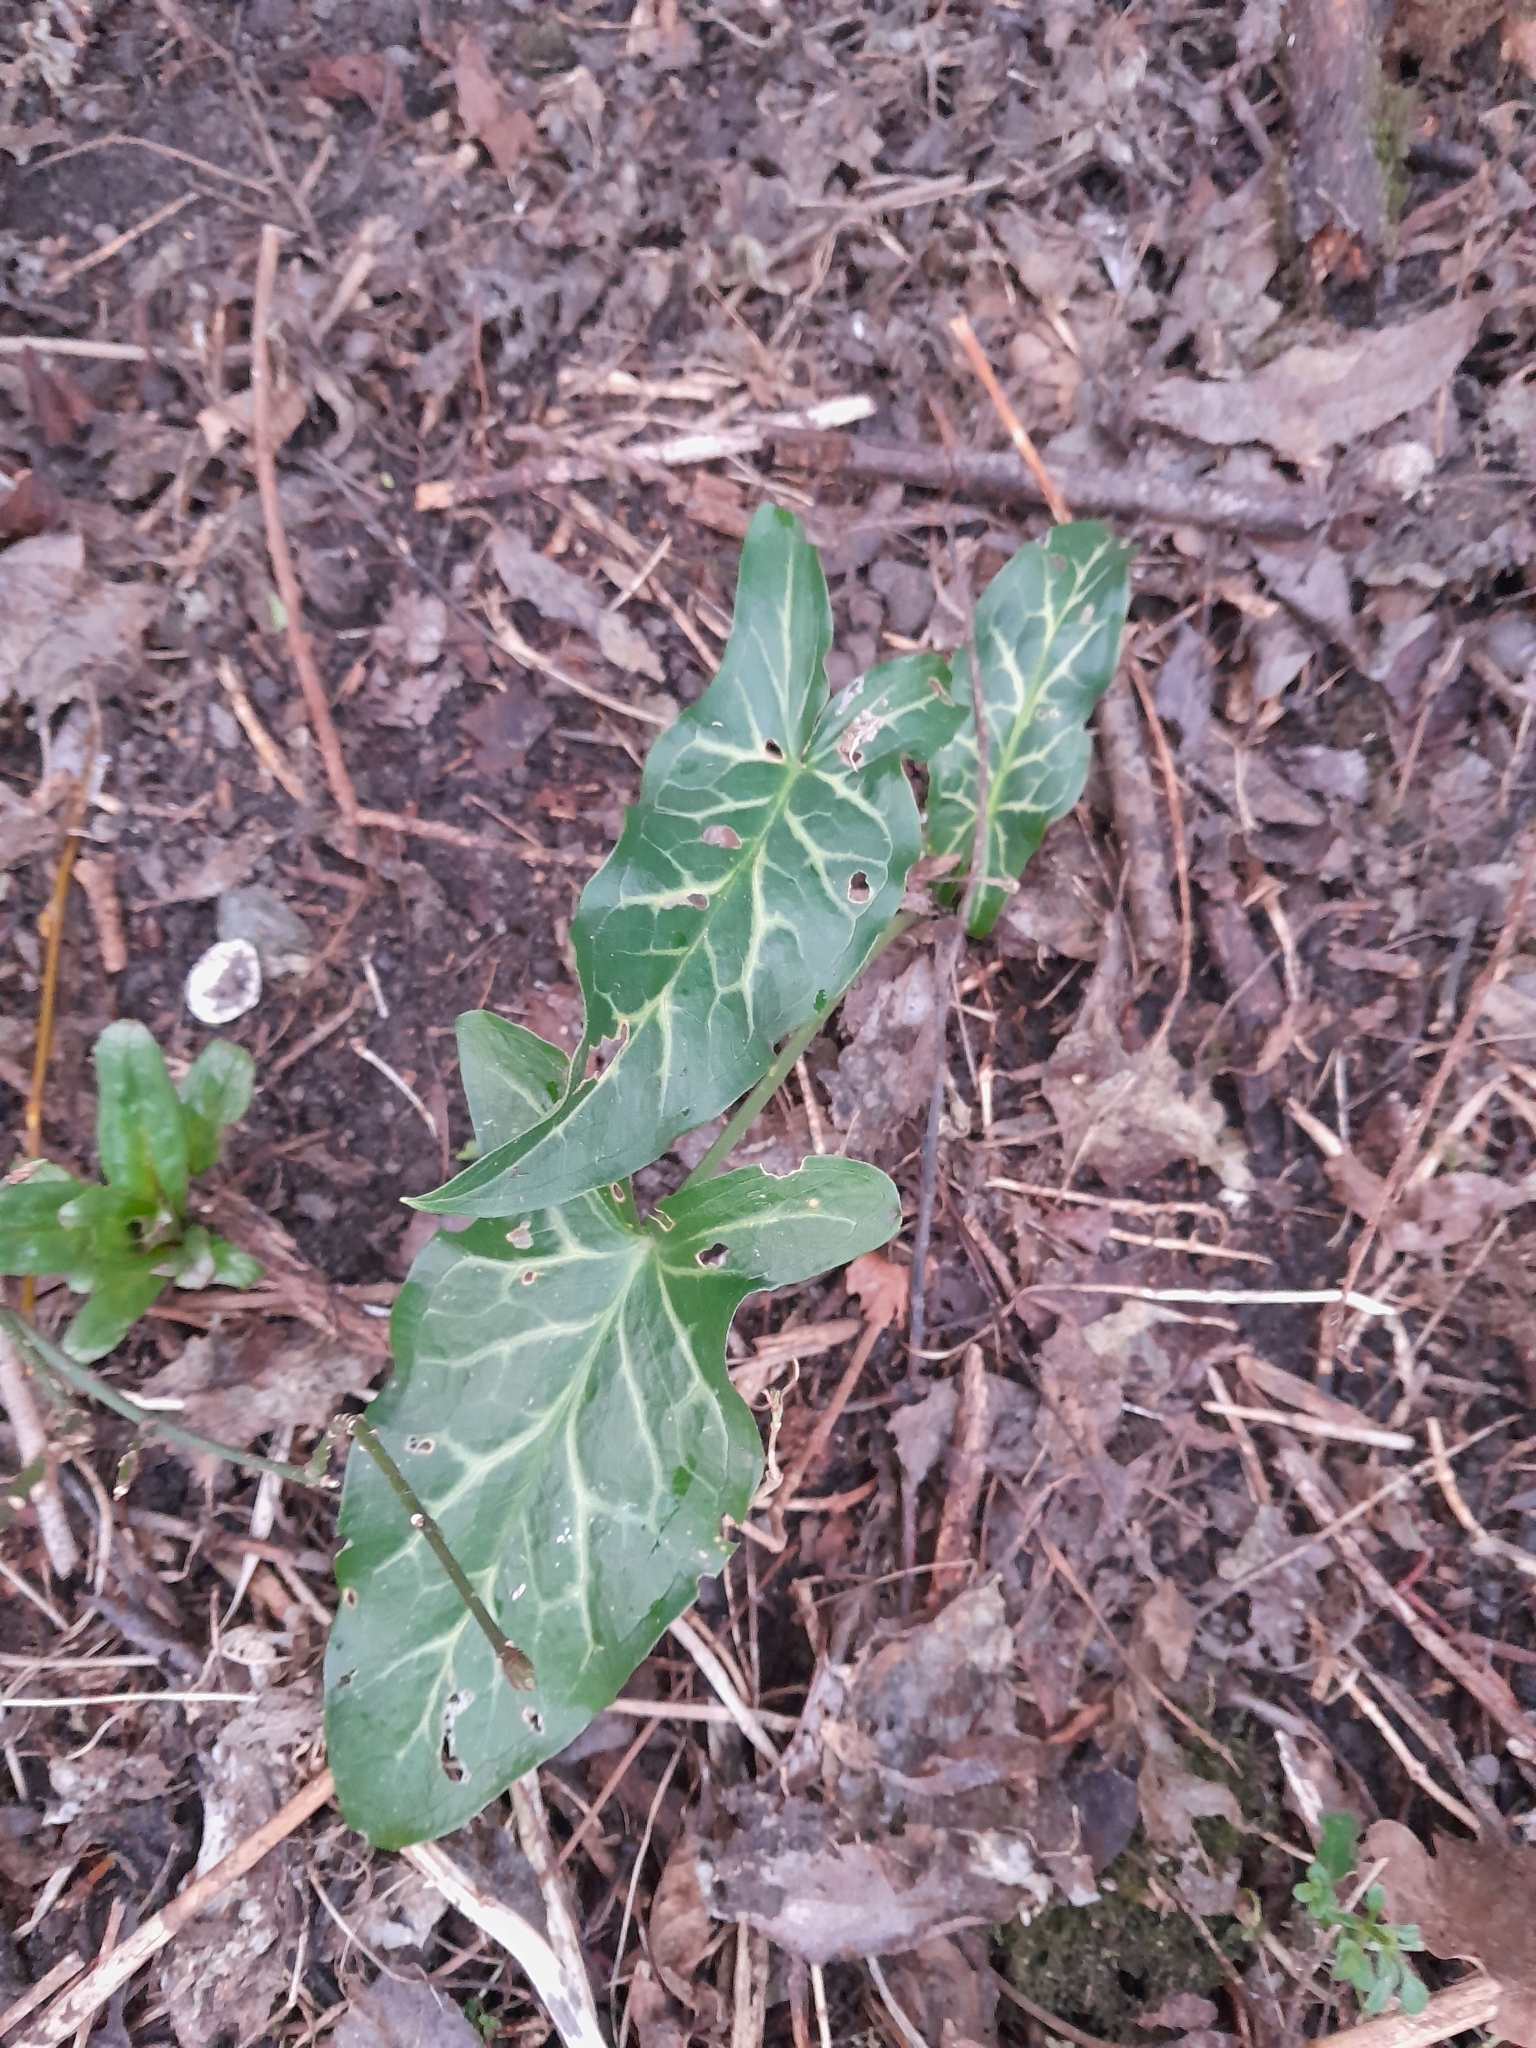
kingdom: Plantae
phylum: Tracheophyta
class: Liliopsida
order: Alismatales
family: Araceae
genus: Arum
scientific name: Arum italicum
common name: Italian lords-and-ladies
